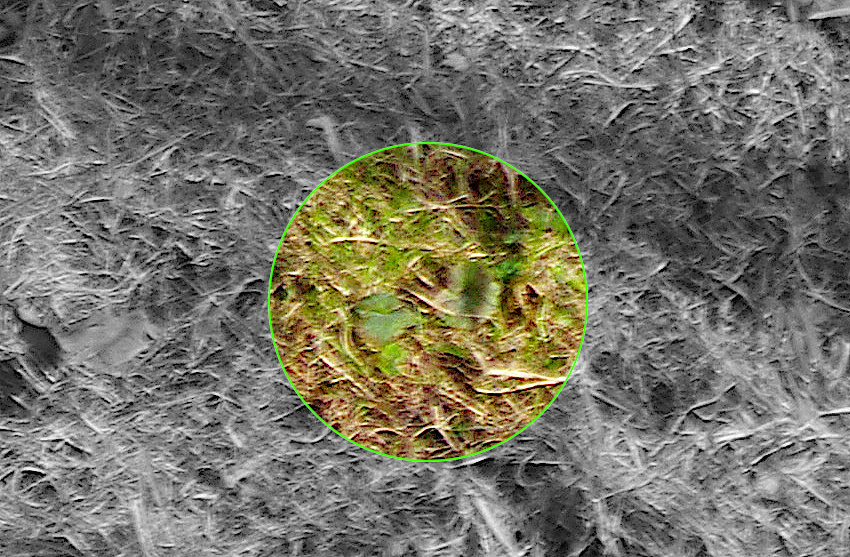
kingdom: Plantae
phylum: Tracheophyta
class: Magnoliopsida
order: Lamiales
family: Lamiaceae
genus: Glechoma
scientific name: Glechoma hederacea
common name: Ground ivy
